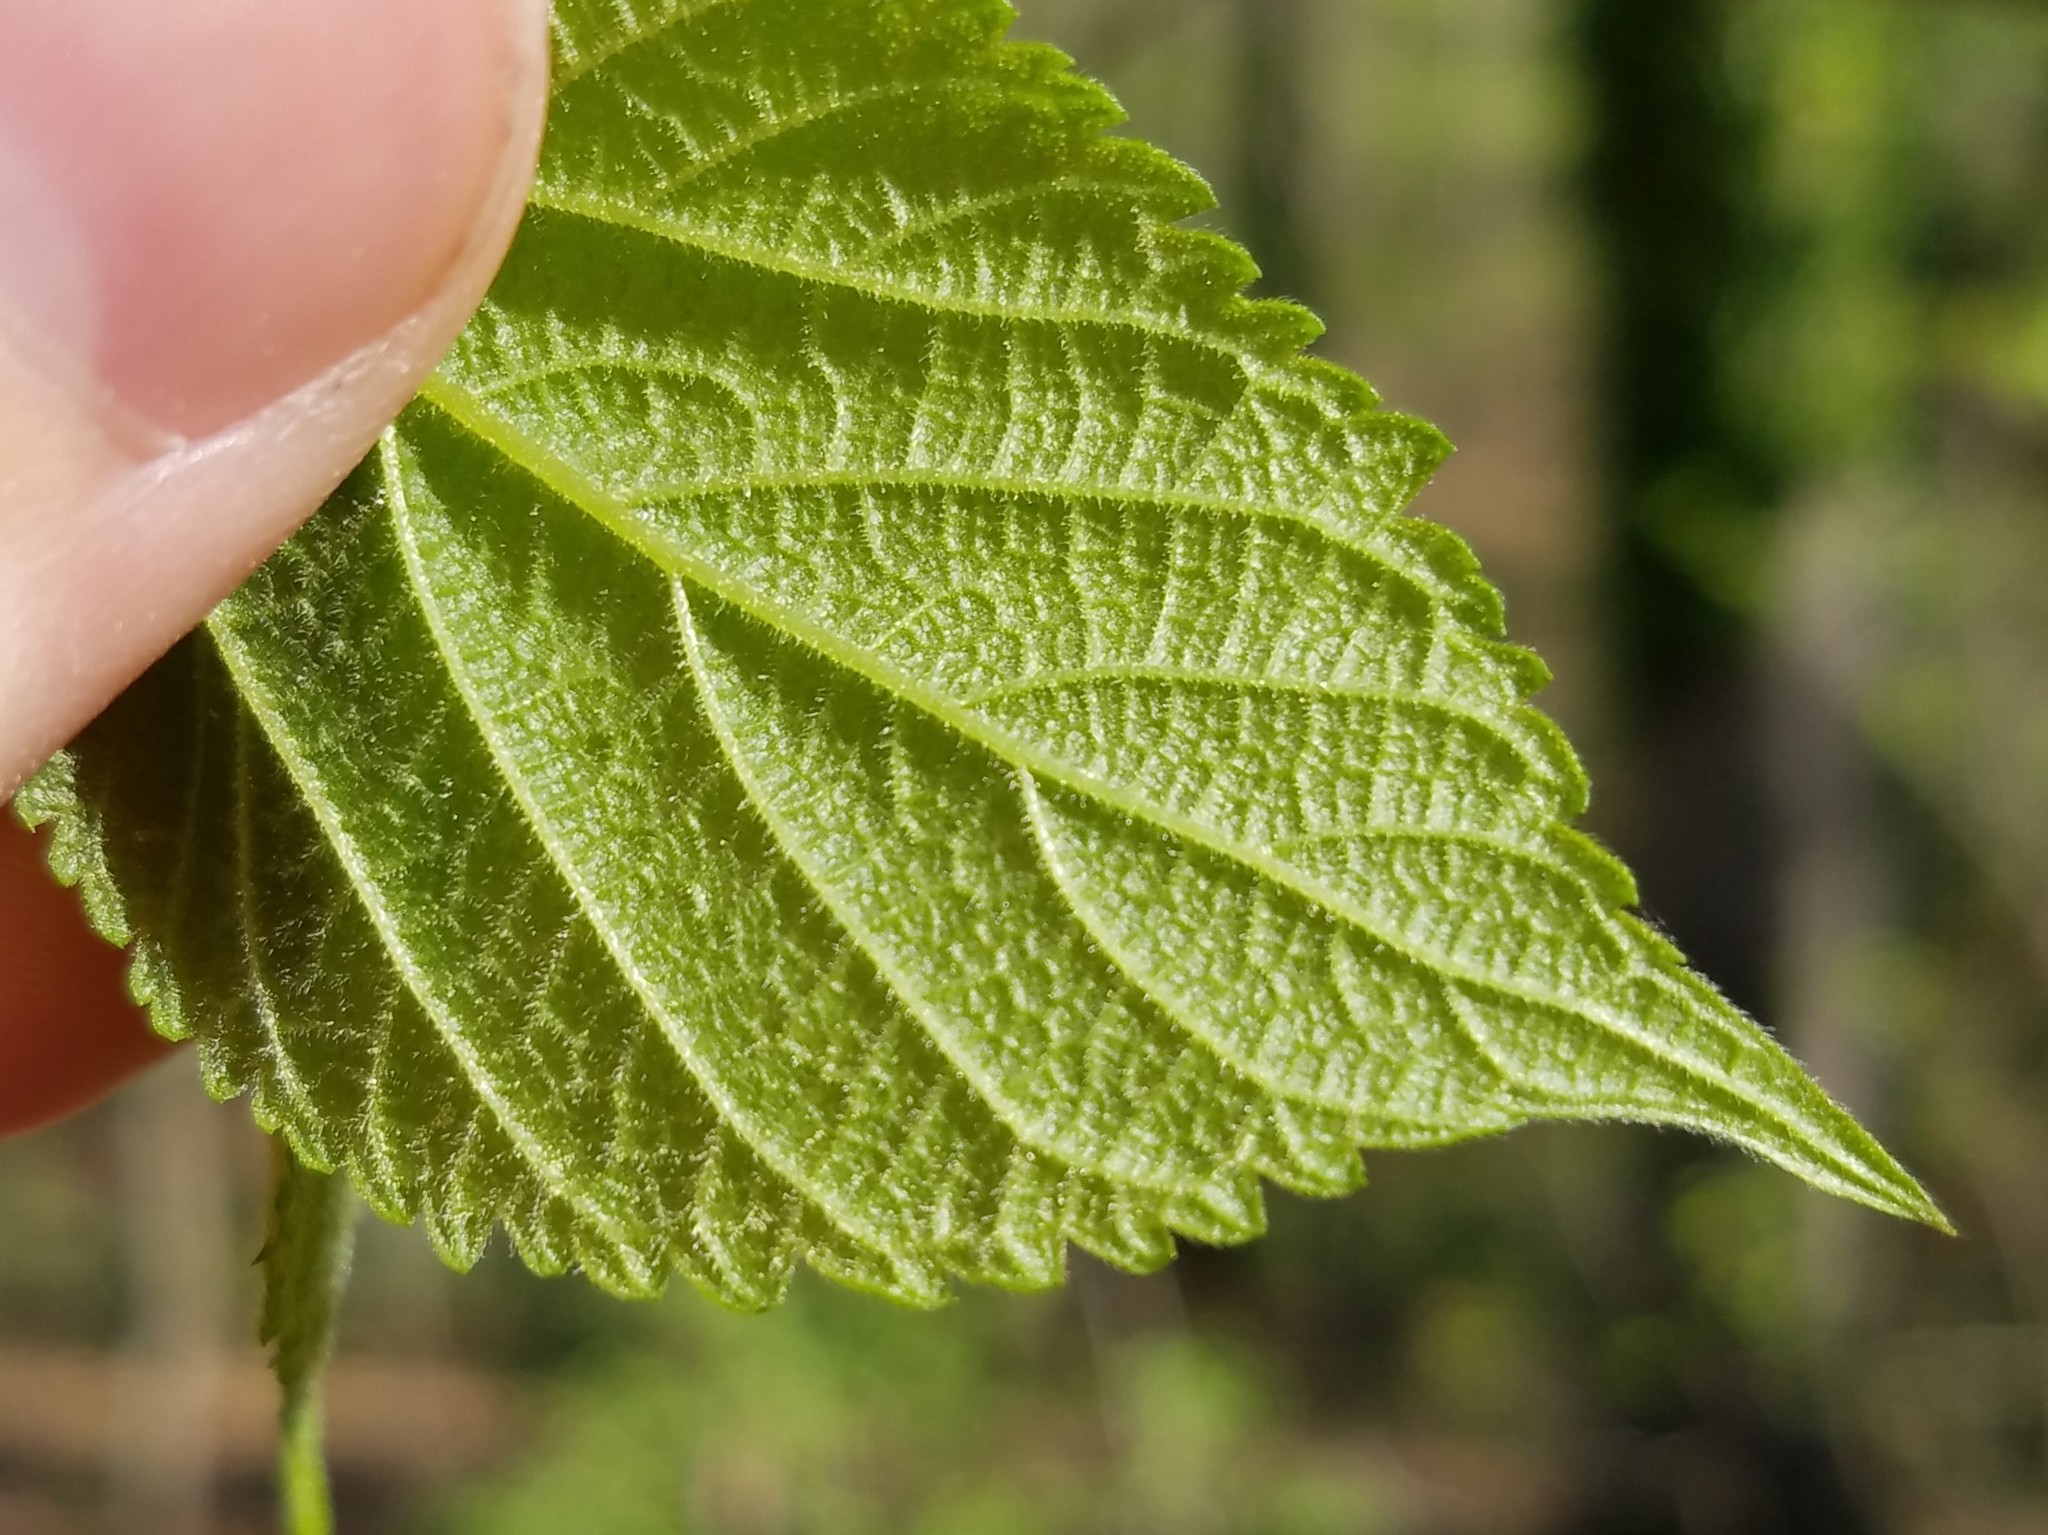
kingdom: Plantae
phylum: Tracheophyta
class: Magnoliopsida
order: Rosales
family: Moraceae
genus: Morus
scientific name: Morus rubra
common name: Red mulberry
